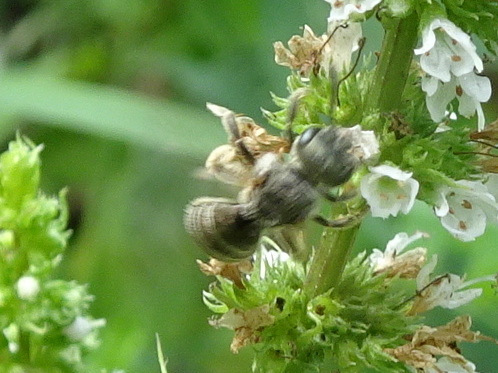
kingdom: Animalia
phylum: Arthropoda
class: Insecta
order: Hymenoptera
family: Halictidae
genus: Halictus
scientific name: Halictus confusus
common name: Southern bronze furrow bee
